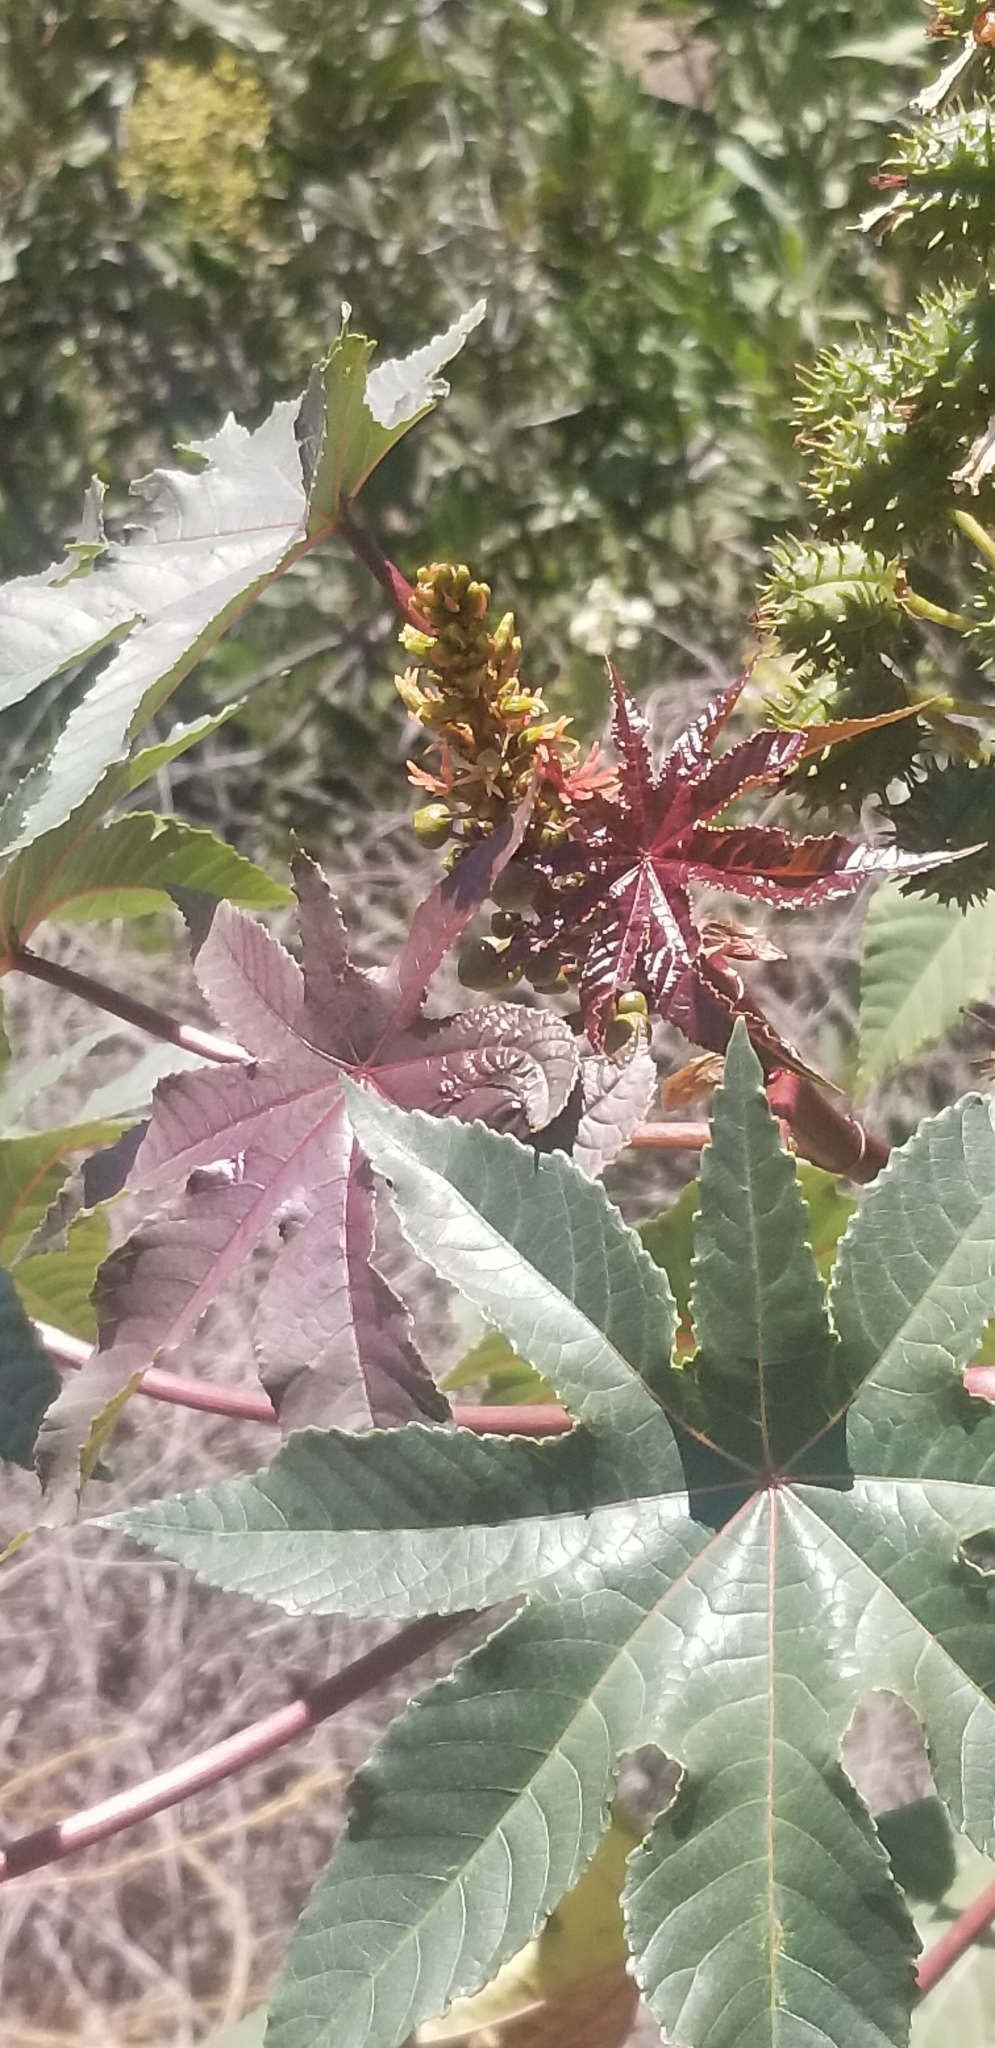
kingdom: Plantae
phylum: Tracheophyta
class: Magnoliopsida
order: Malpighiales
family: Euphorbiaceae
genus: Ricinus
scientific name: Ricinus communis
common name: Castor-oil-plant
